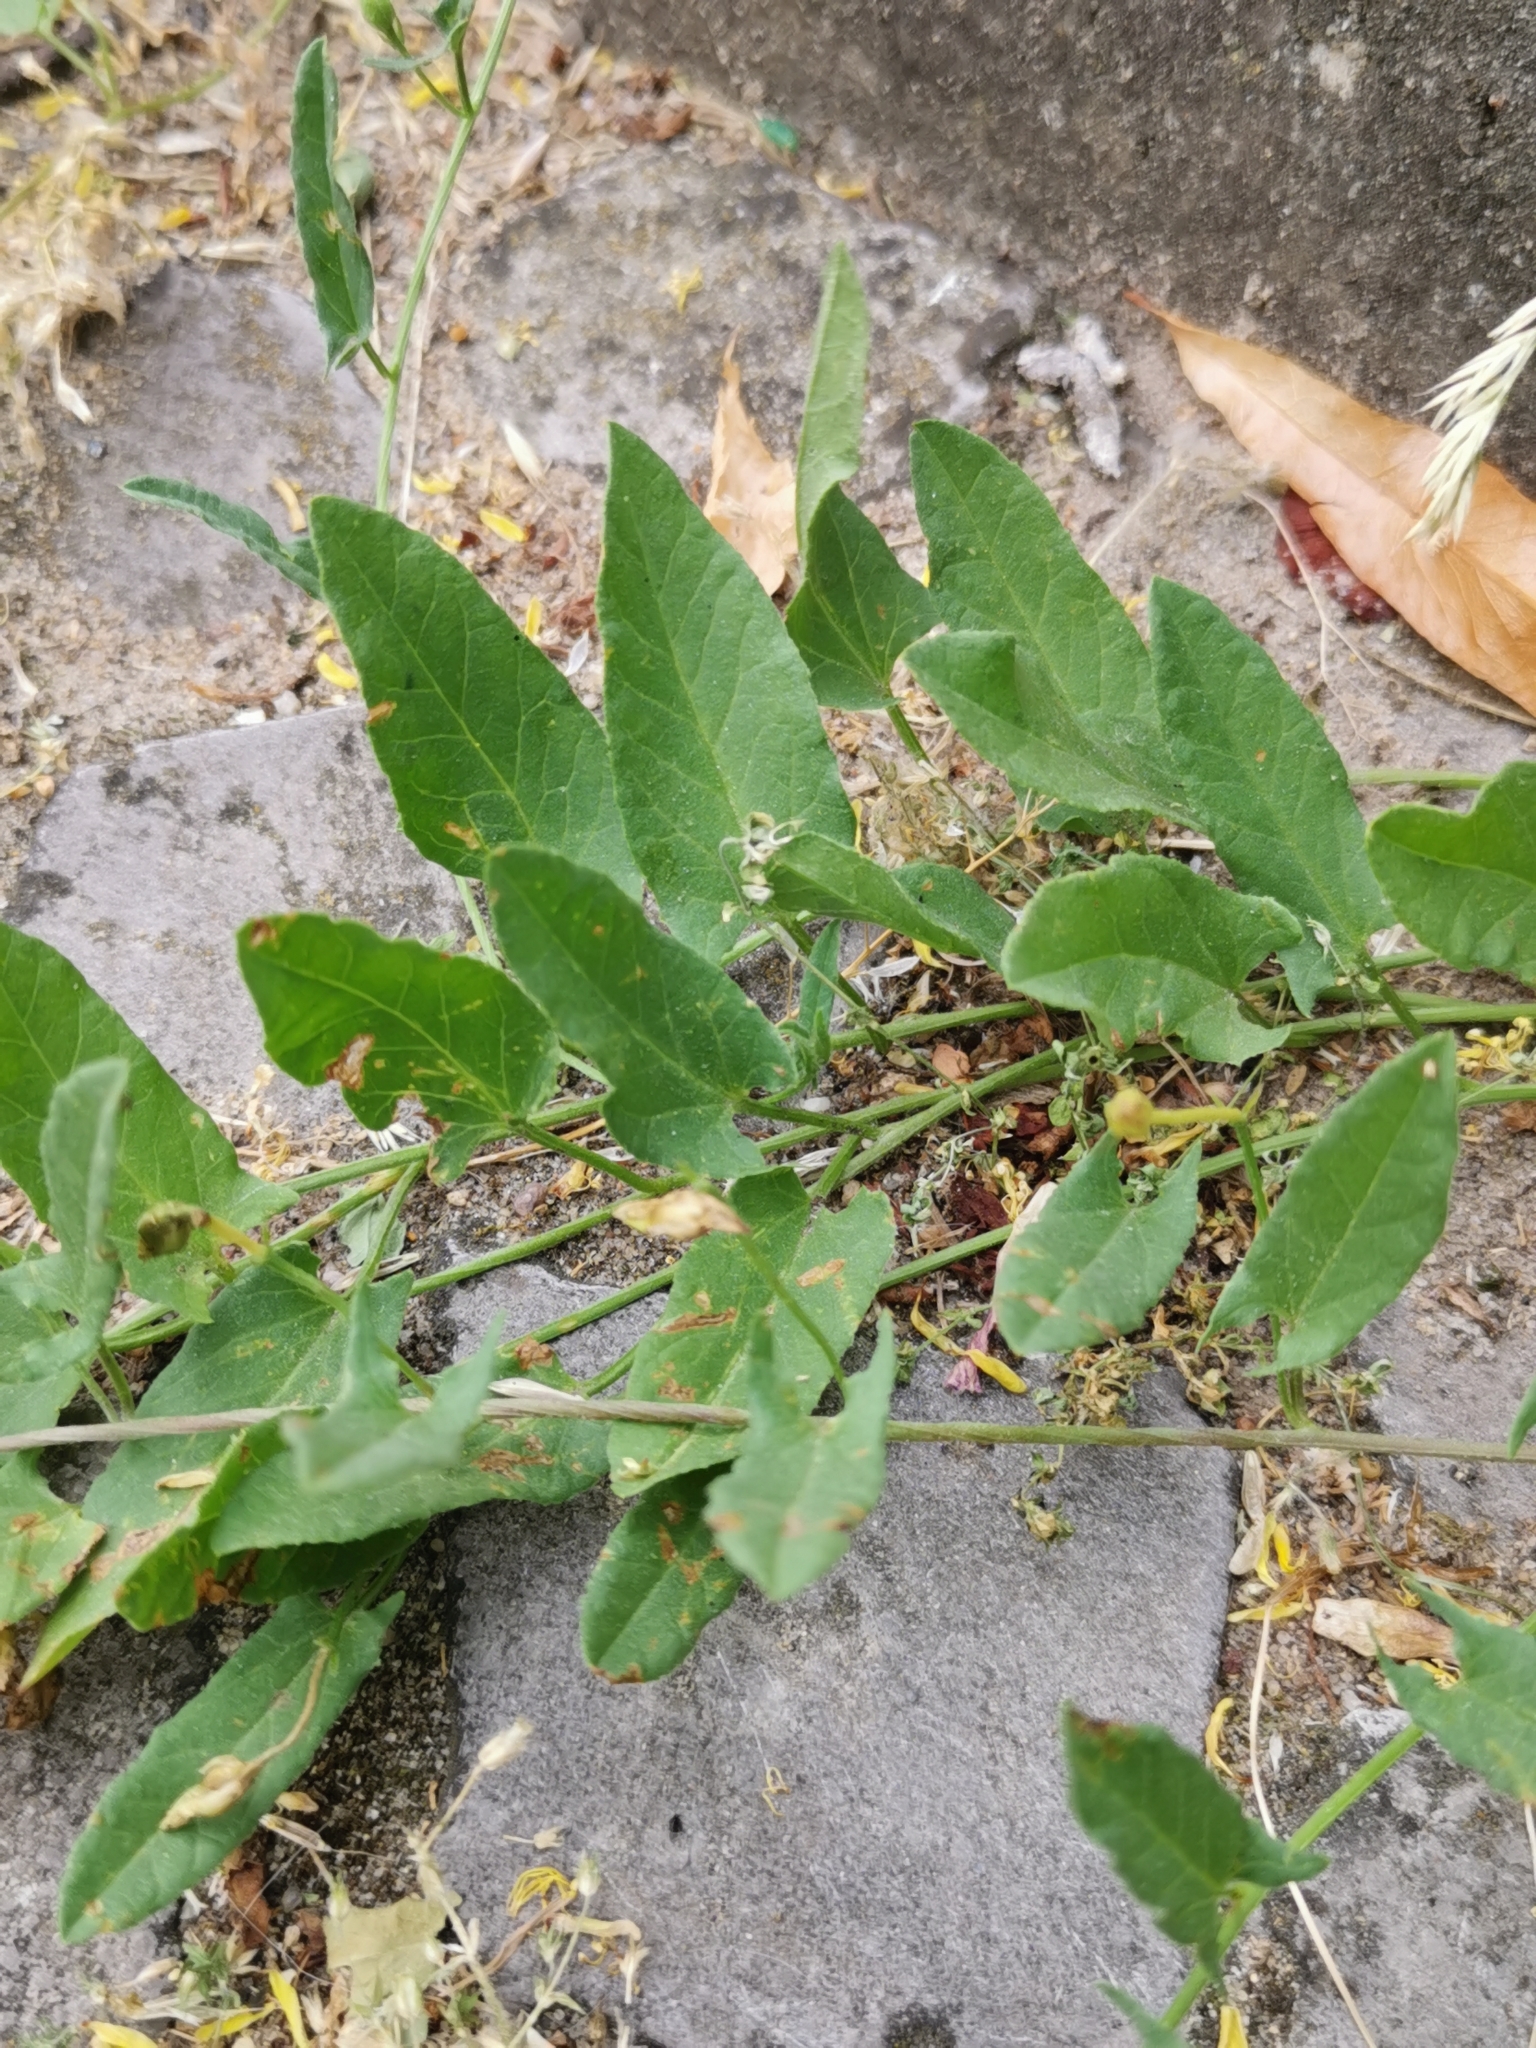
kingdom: Plantae
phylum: Tracheophyta
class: Magnoliopsida
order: Solanales
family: Convolvulaceae
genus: Convolvulus
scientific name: Convolvulus arvensis
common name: Field bindweed
